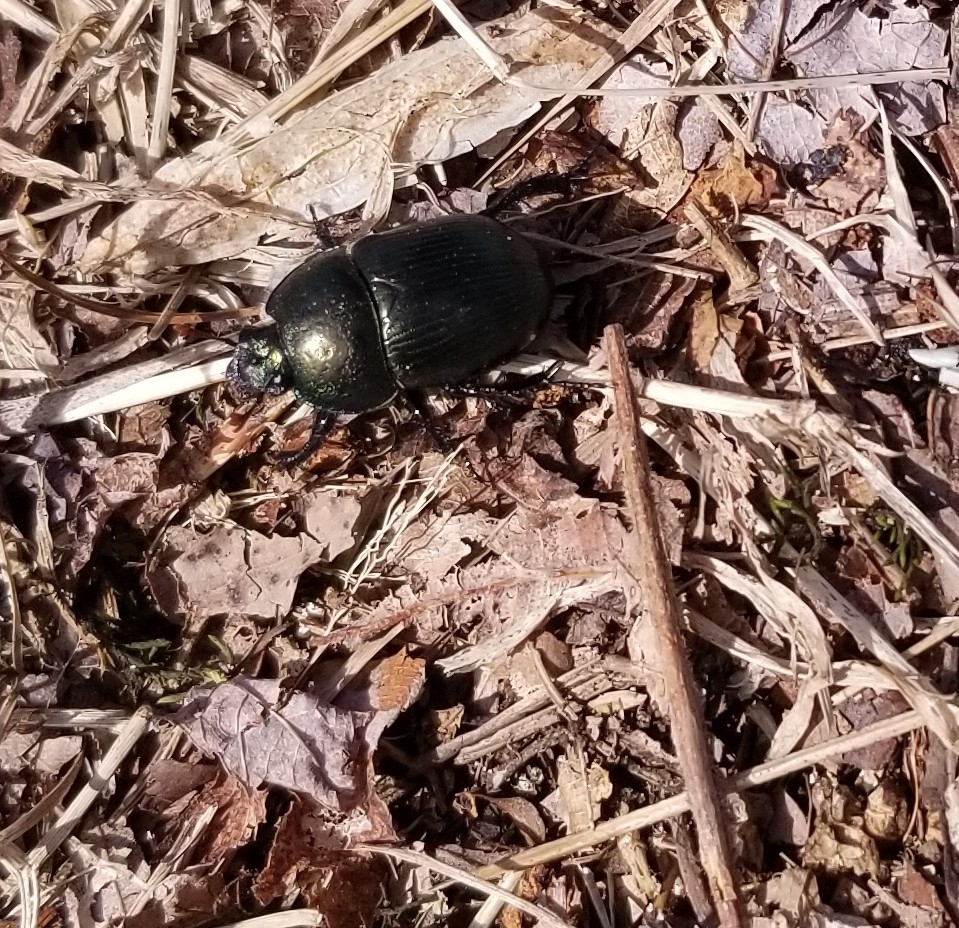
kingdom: Animalia
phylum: Arthropoda
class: Insecta
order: Coleoptera
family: Geotrupidae
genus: Geotrupes
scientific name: Geotrupes splendidus
